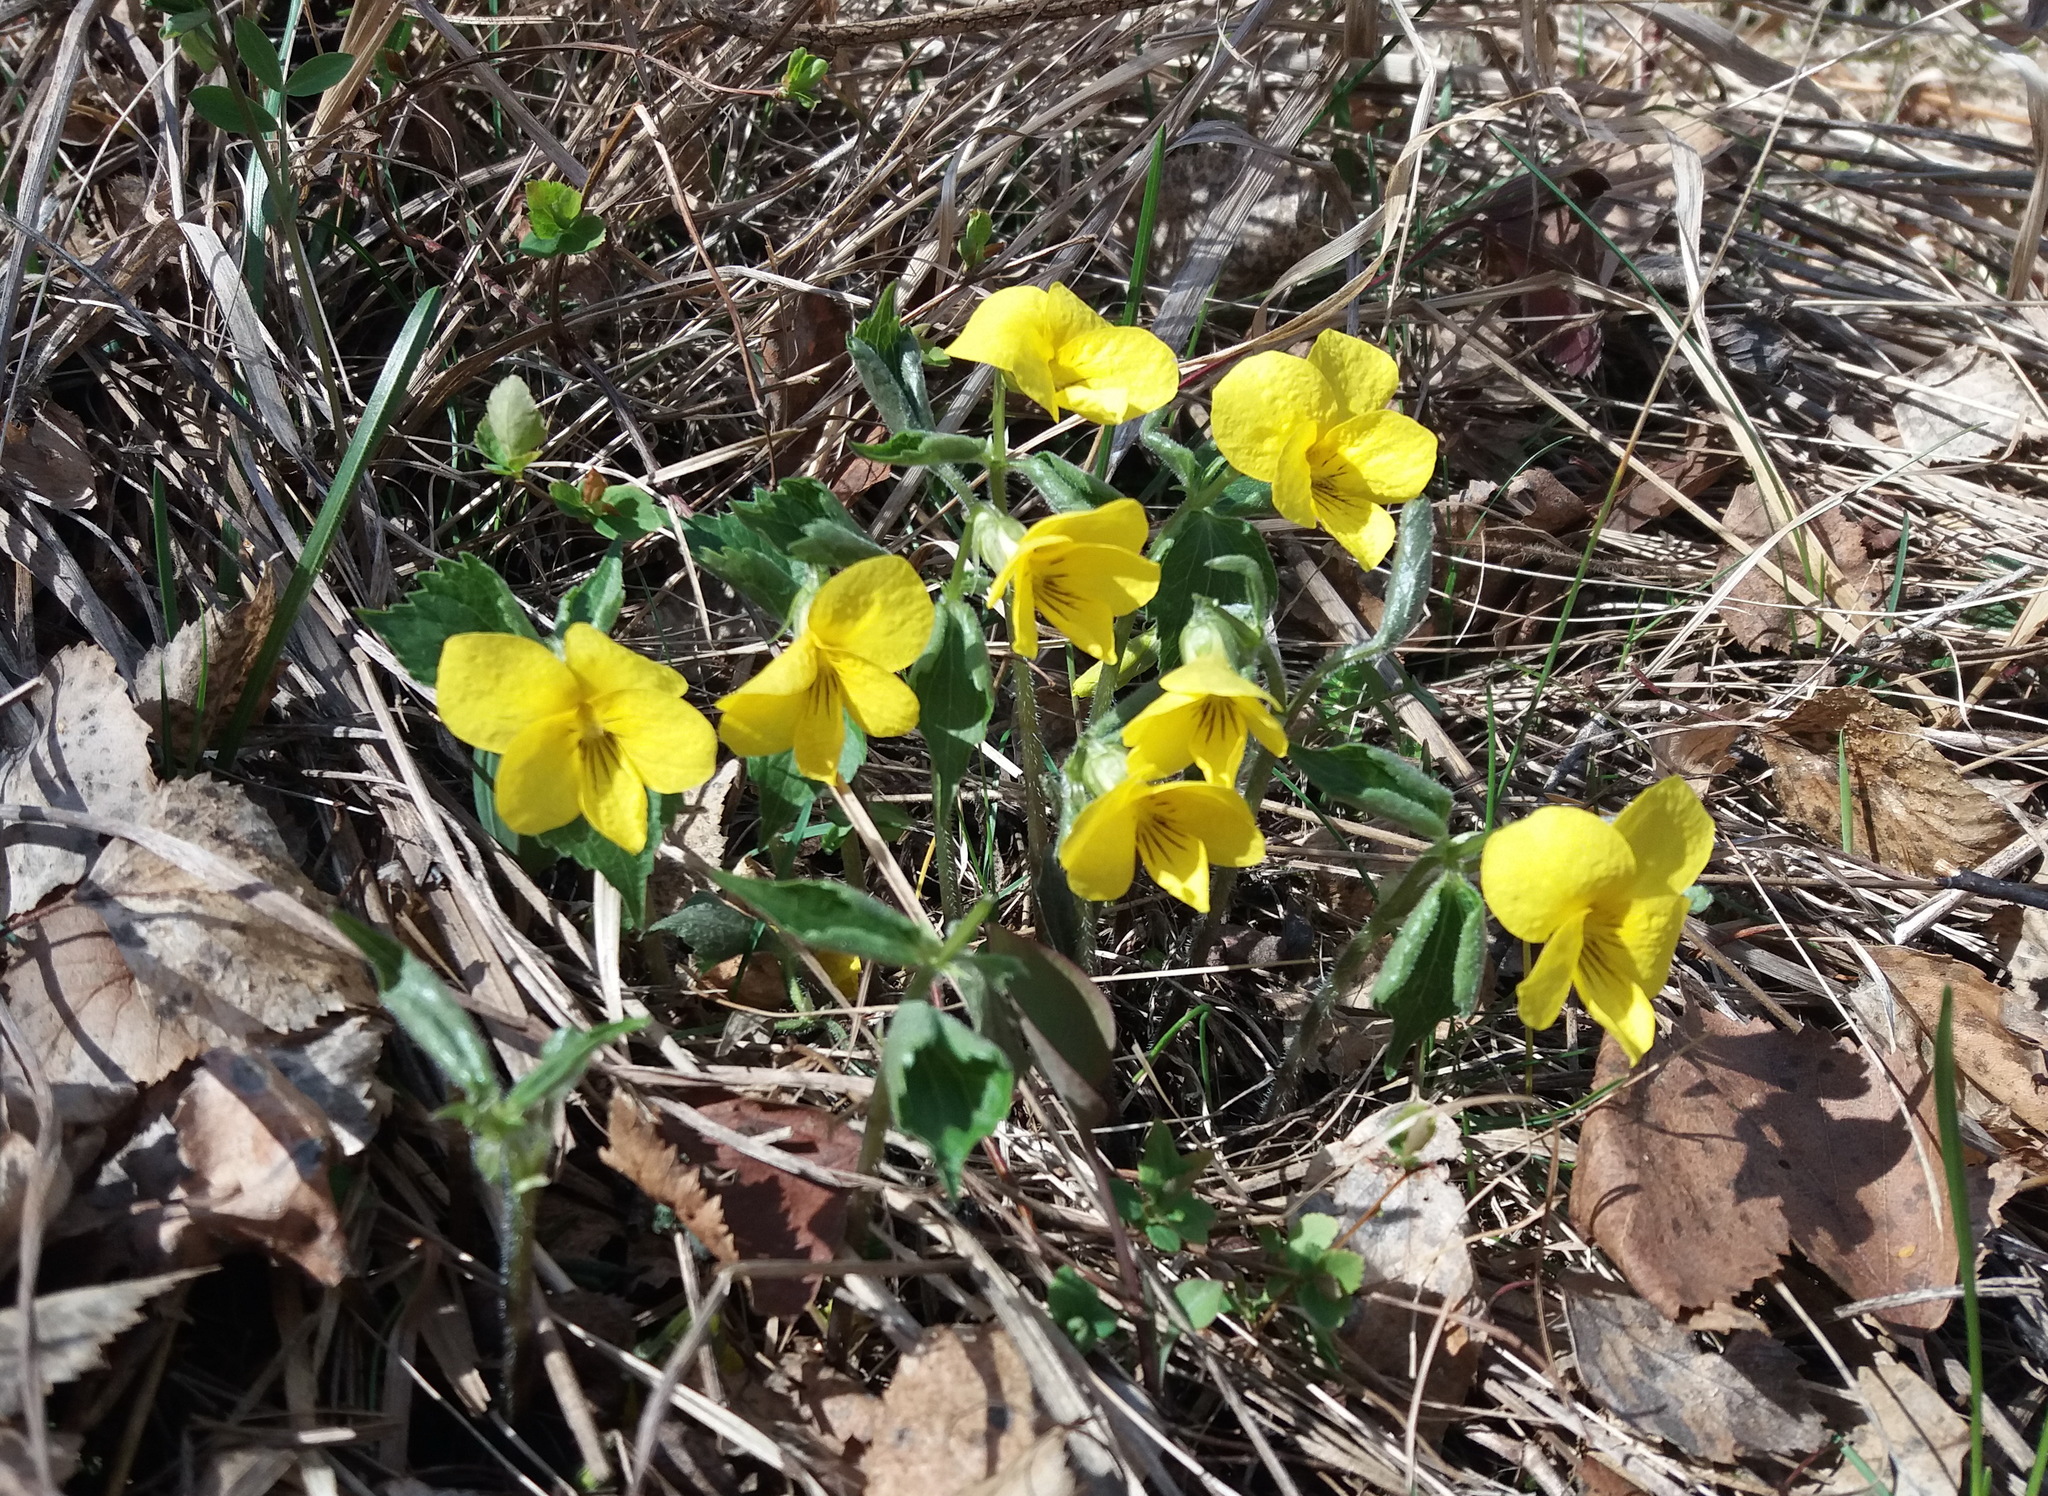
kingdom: Plantae
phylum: Tracheophyta
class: Magnoliopsida
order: Malpighiales
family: Violaceae
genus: Viola
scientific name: Viola uniflora
